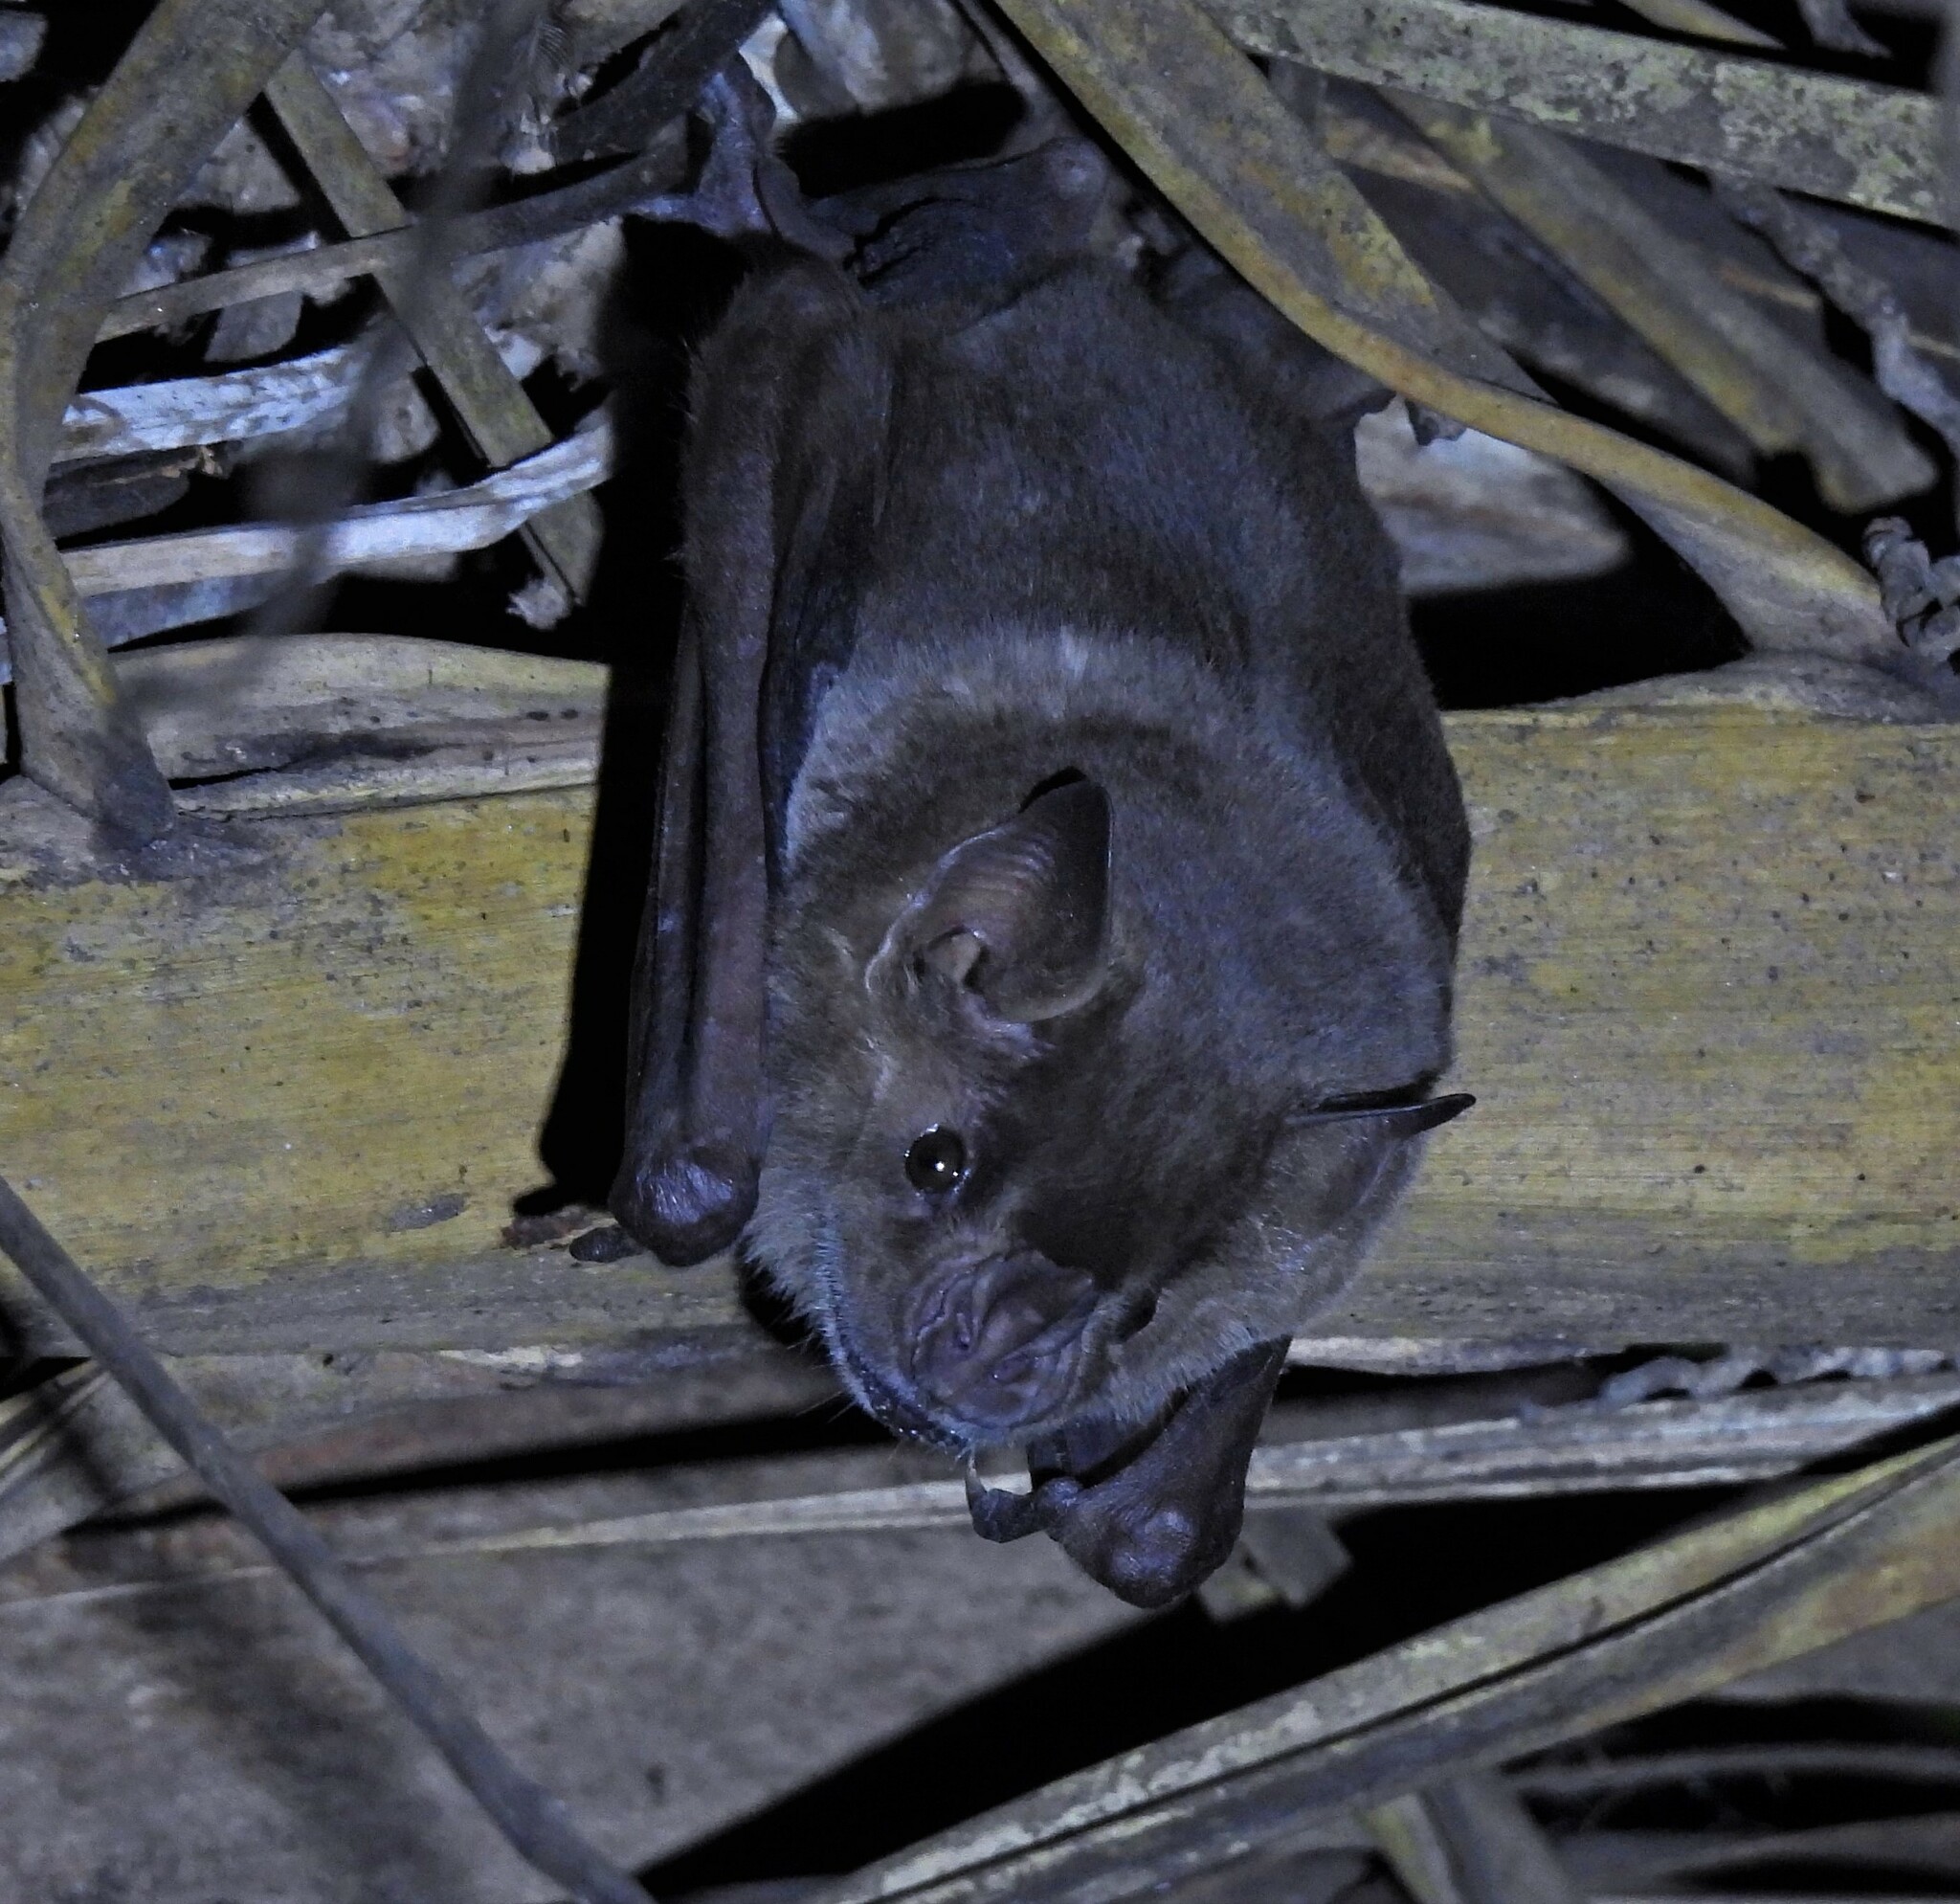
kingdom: Animalia
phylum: Chordata
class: Mammalia
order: Chiroptera
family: Phyllostomidae
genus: Artibeus
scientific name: Artibeus planirostris
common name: Flat-faced fruit-eating bat
